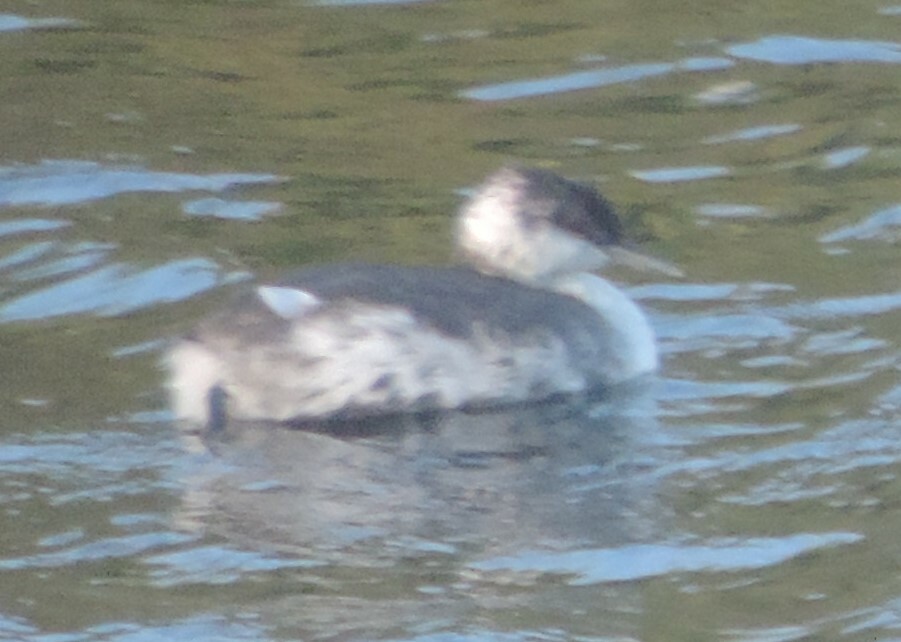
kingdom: Animalia
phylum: Chordata
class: Aves
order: Podicipediformes
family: Podicipedidae
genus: Podiceps
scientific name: Podiceps auritus
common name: Horned grebe
